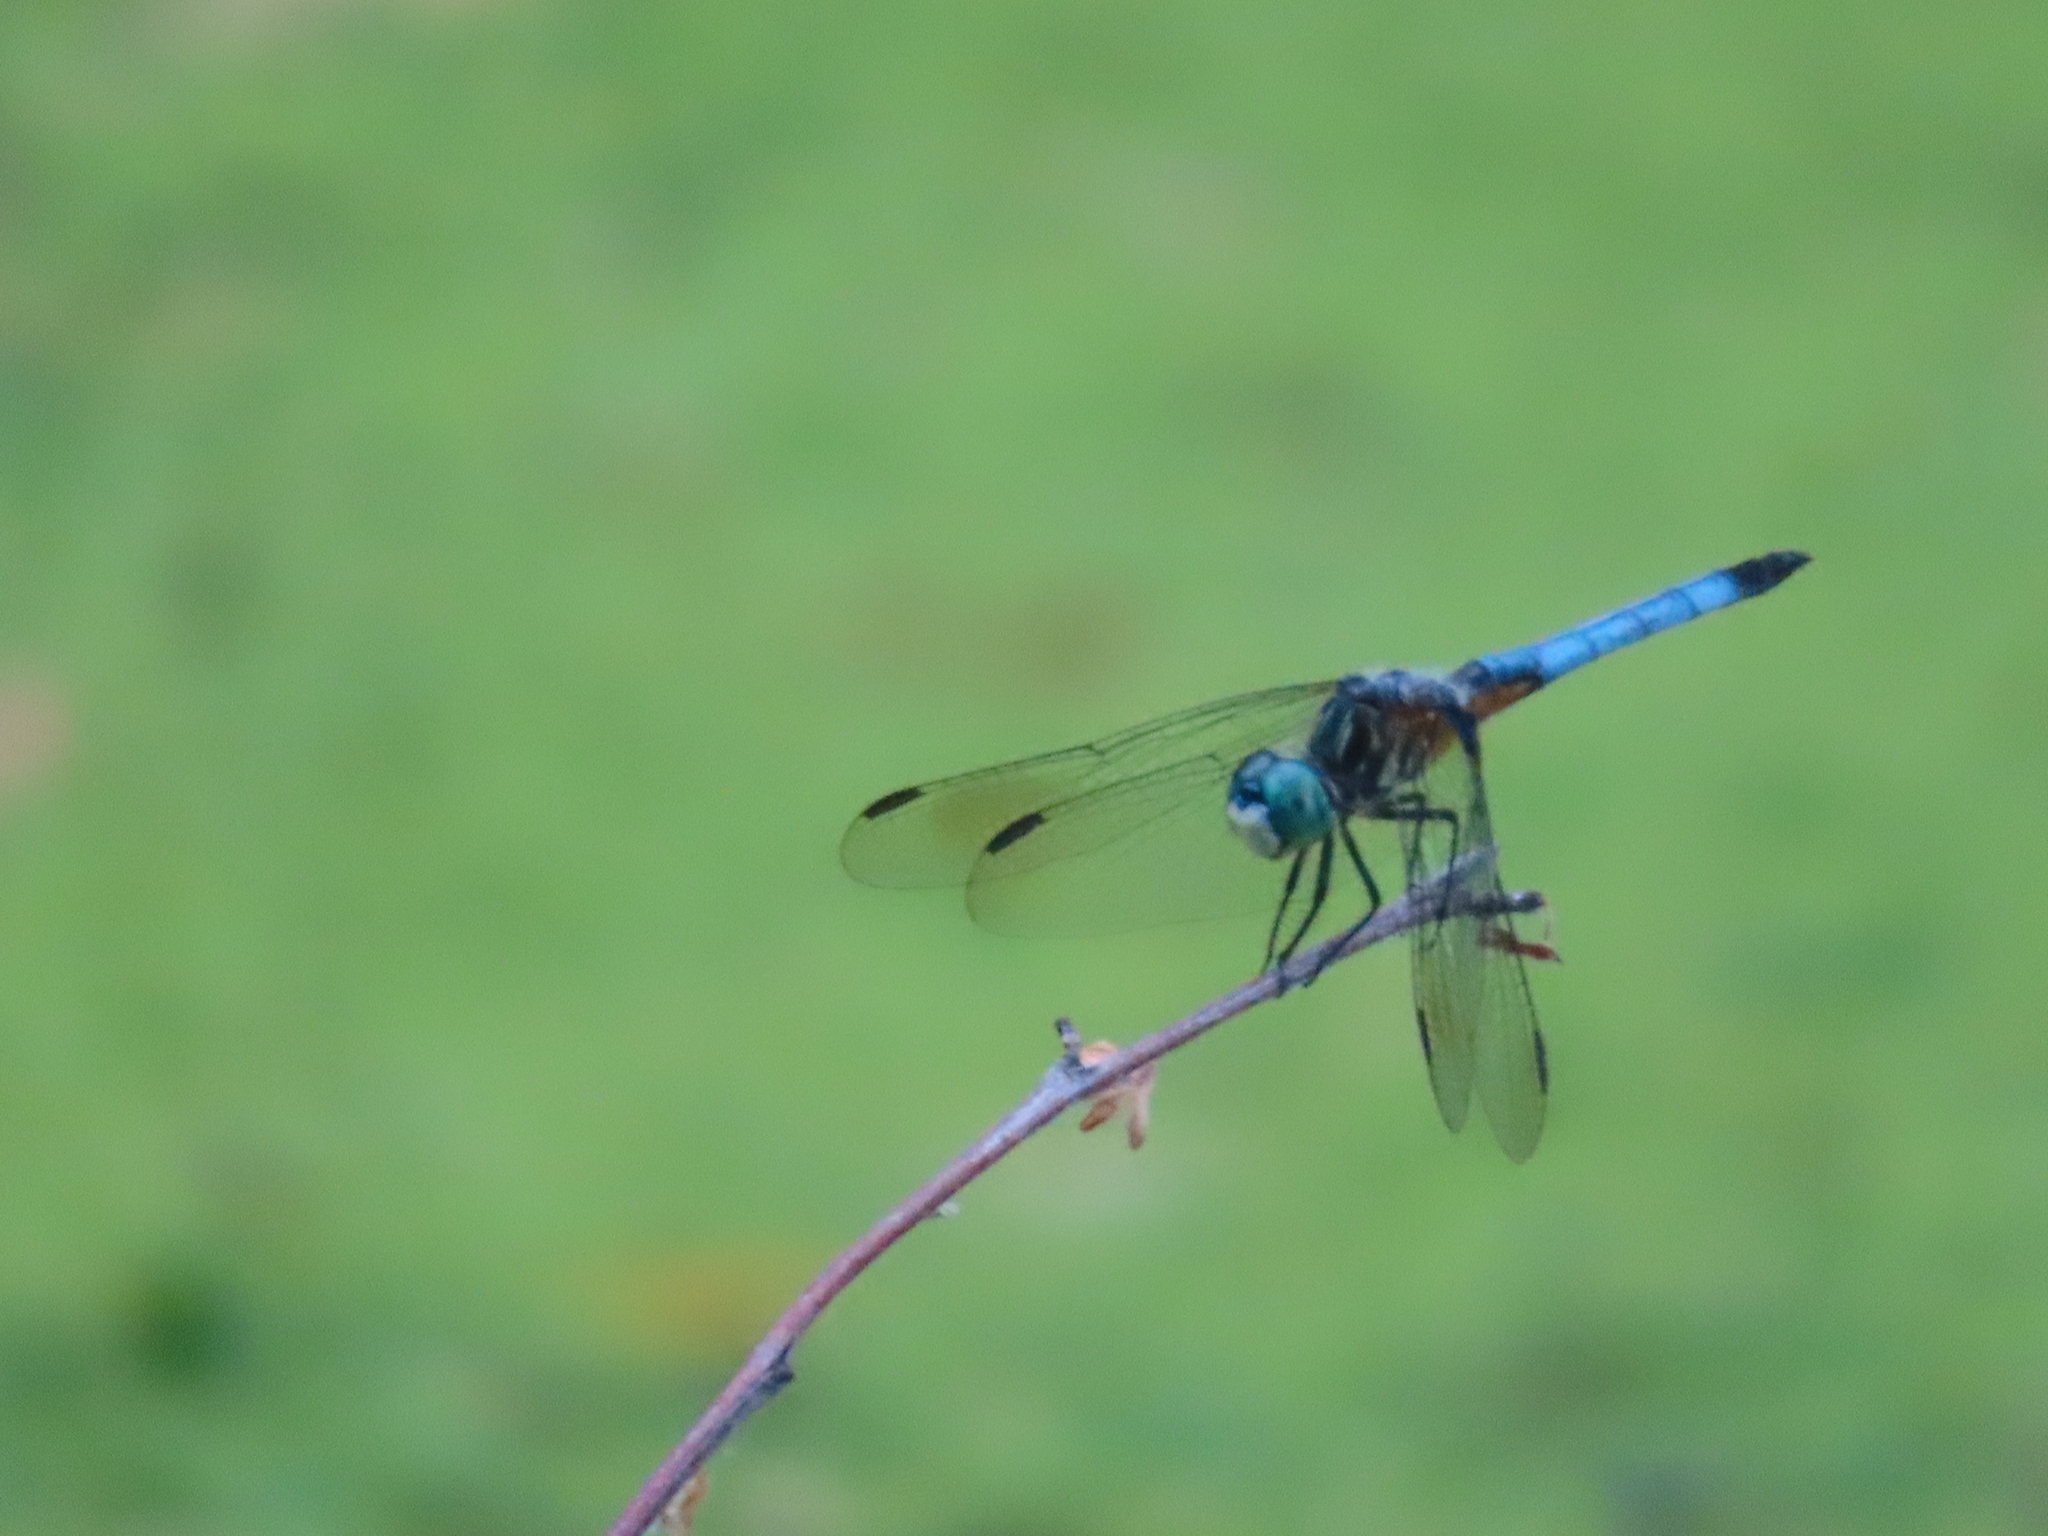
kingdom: Animalia
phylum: Arthropoda
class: Insecta
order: Odonata
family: Libellulidae
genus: Pachydiplax
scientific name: Pachydiplax longipennis
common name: Blue dasher
